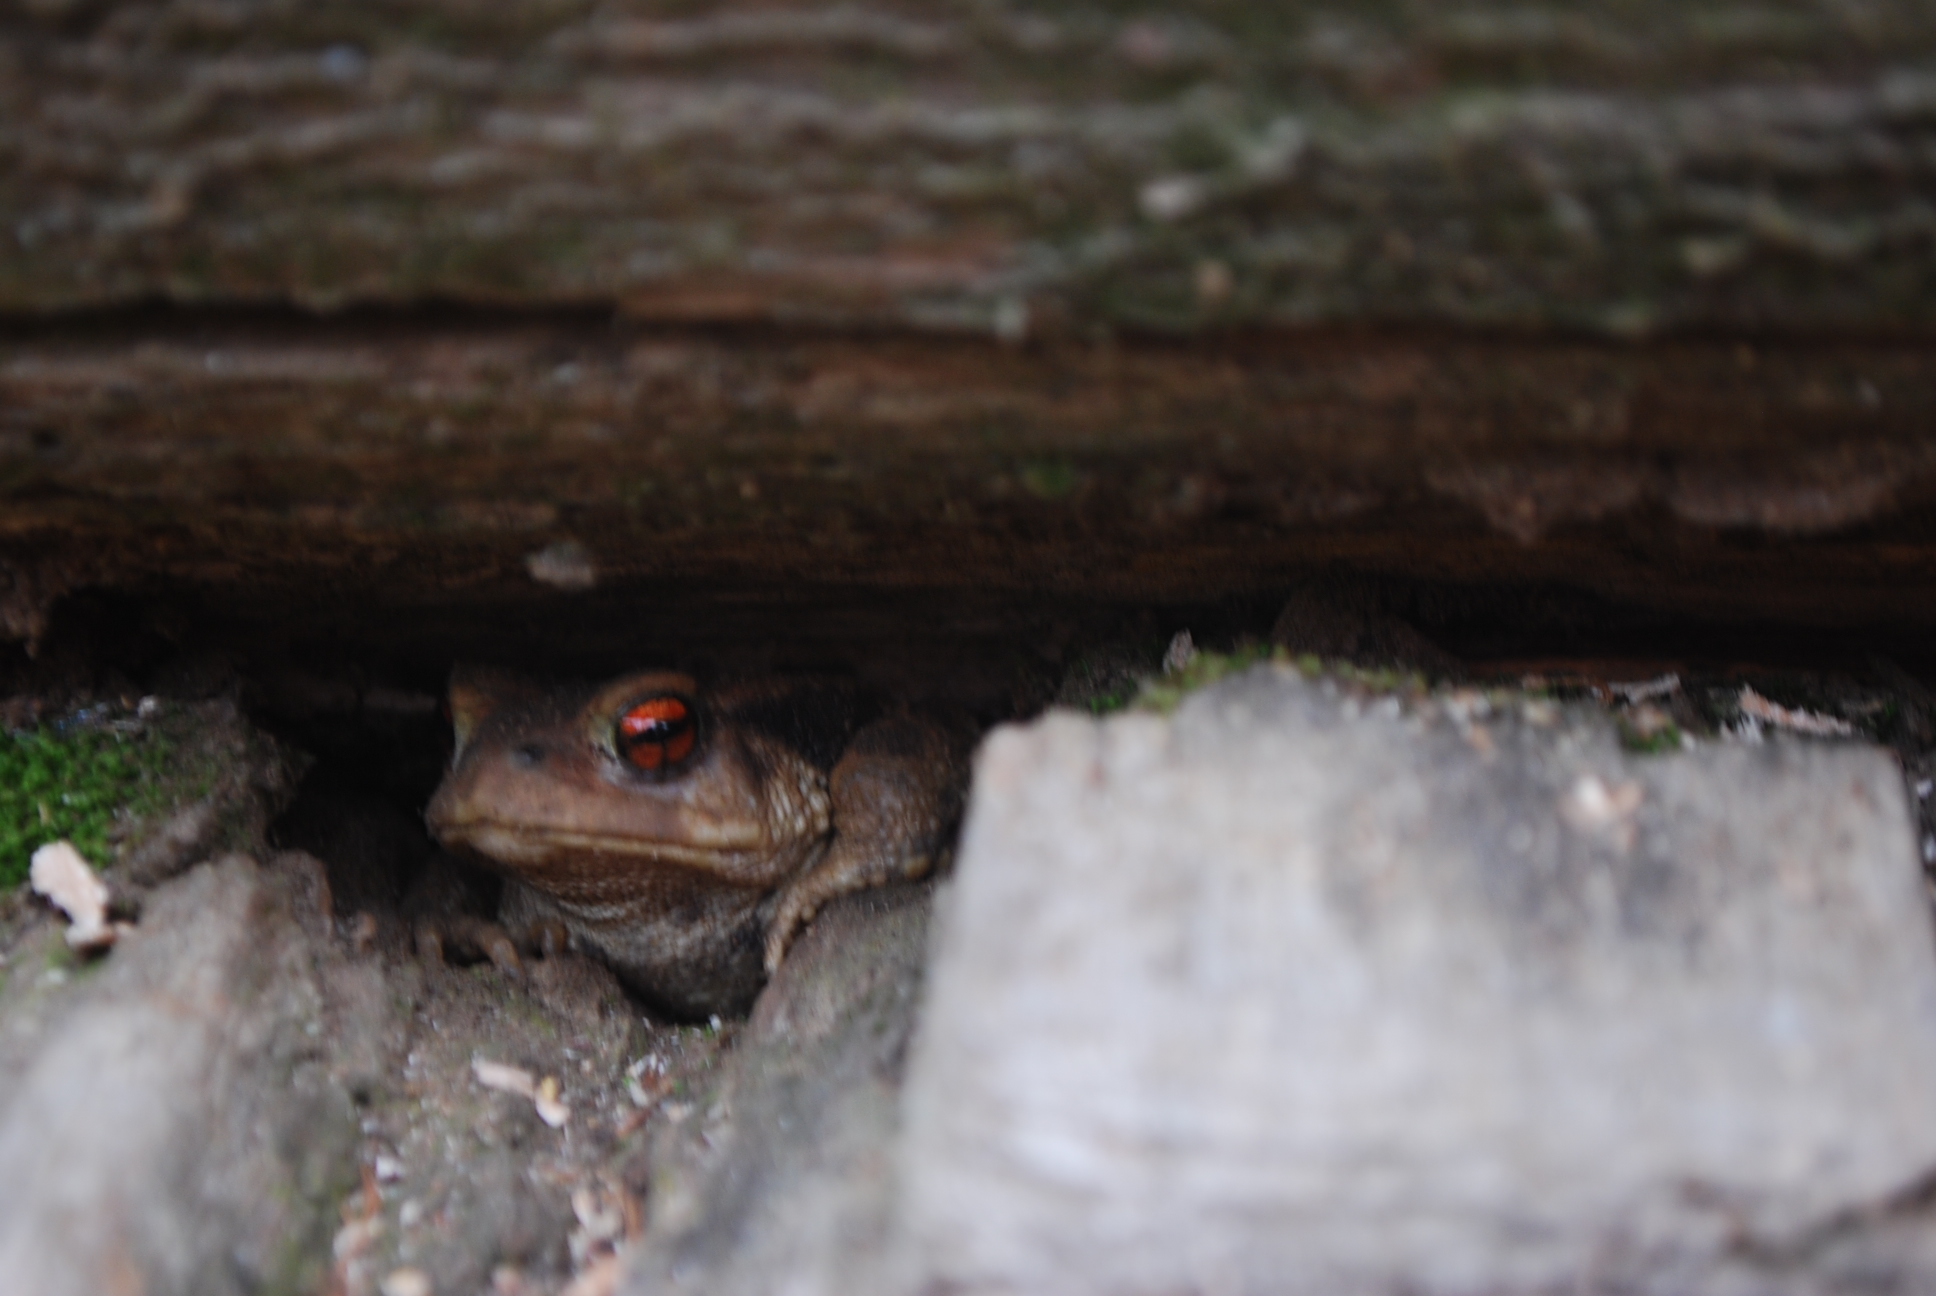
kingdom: Animalia
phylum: Chordata
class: Amphibia
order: Anura
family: Bufonidae
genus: Bufo
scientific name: Bufo spinosus
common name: Western common toad
